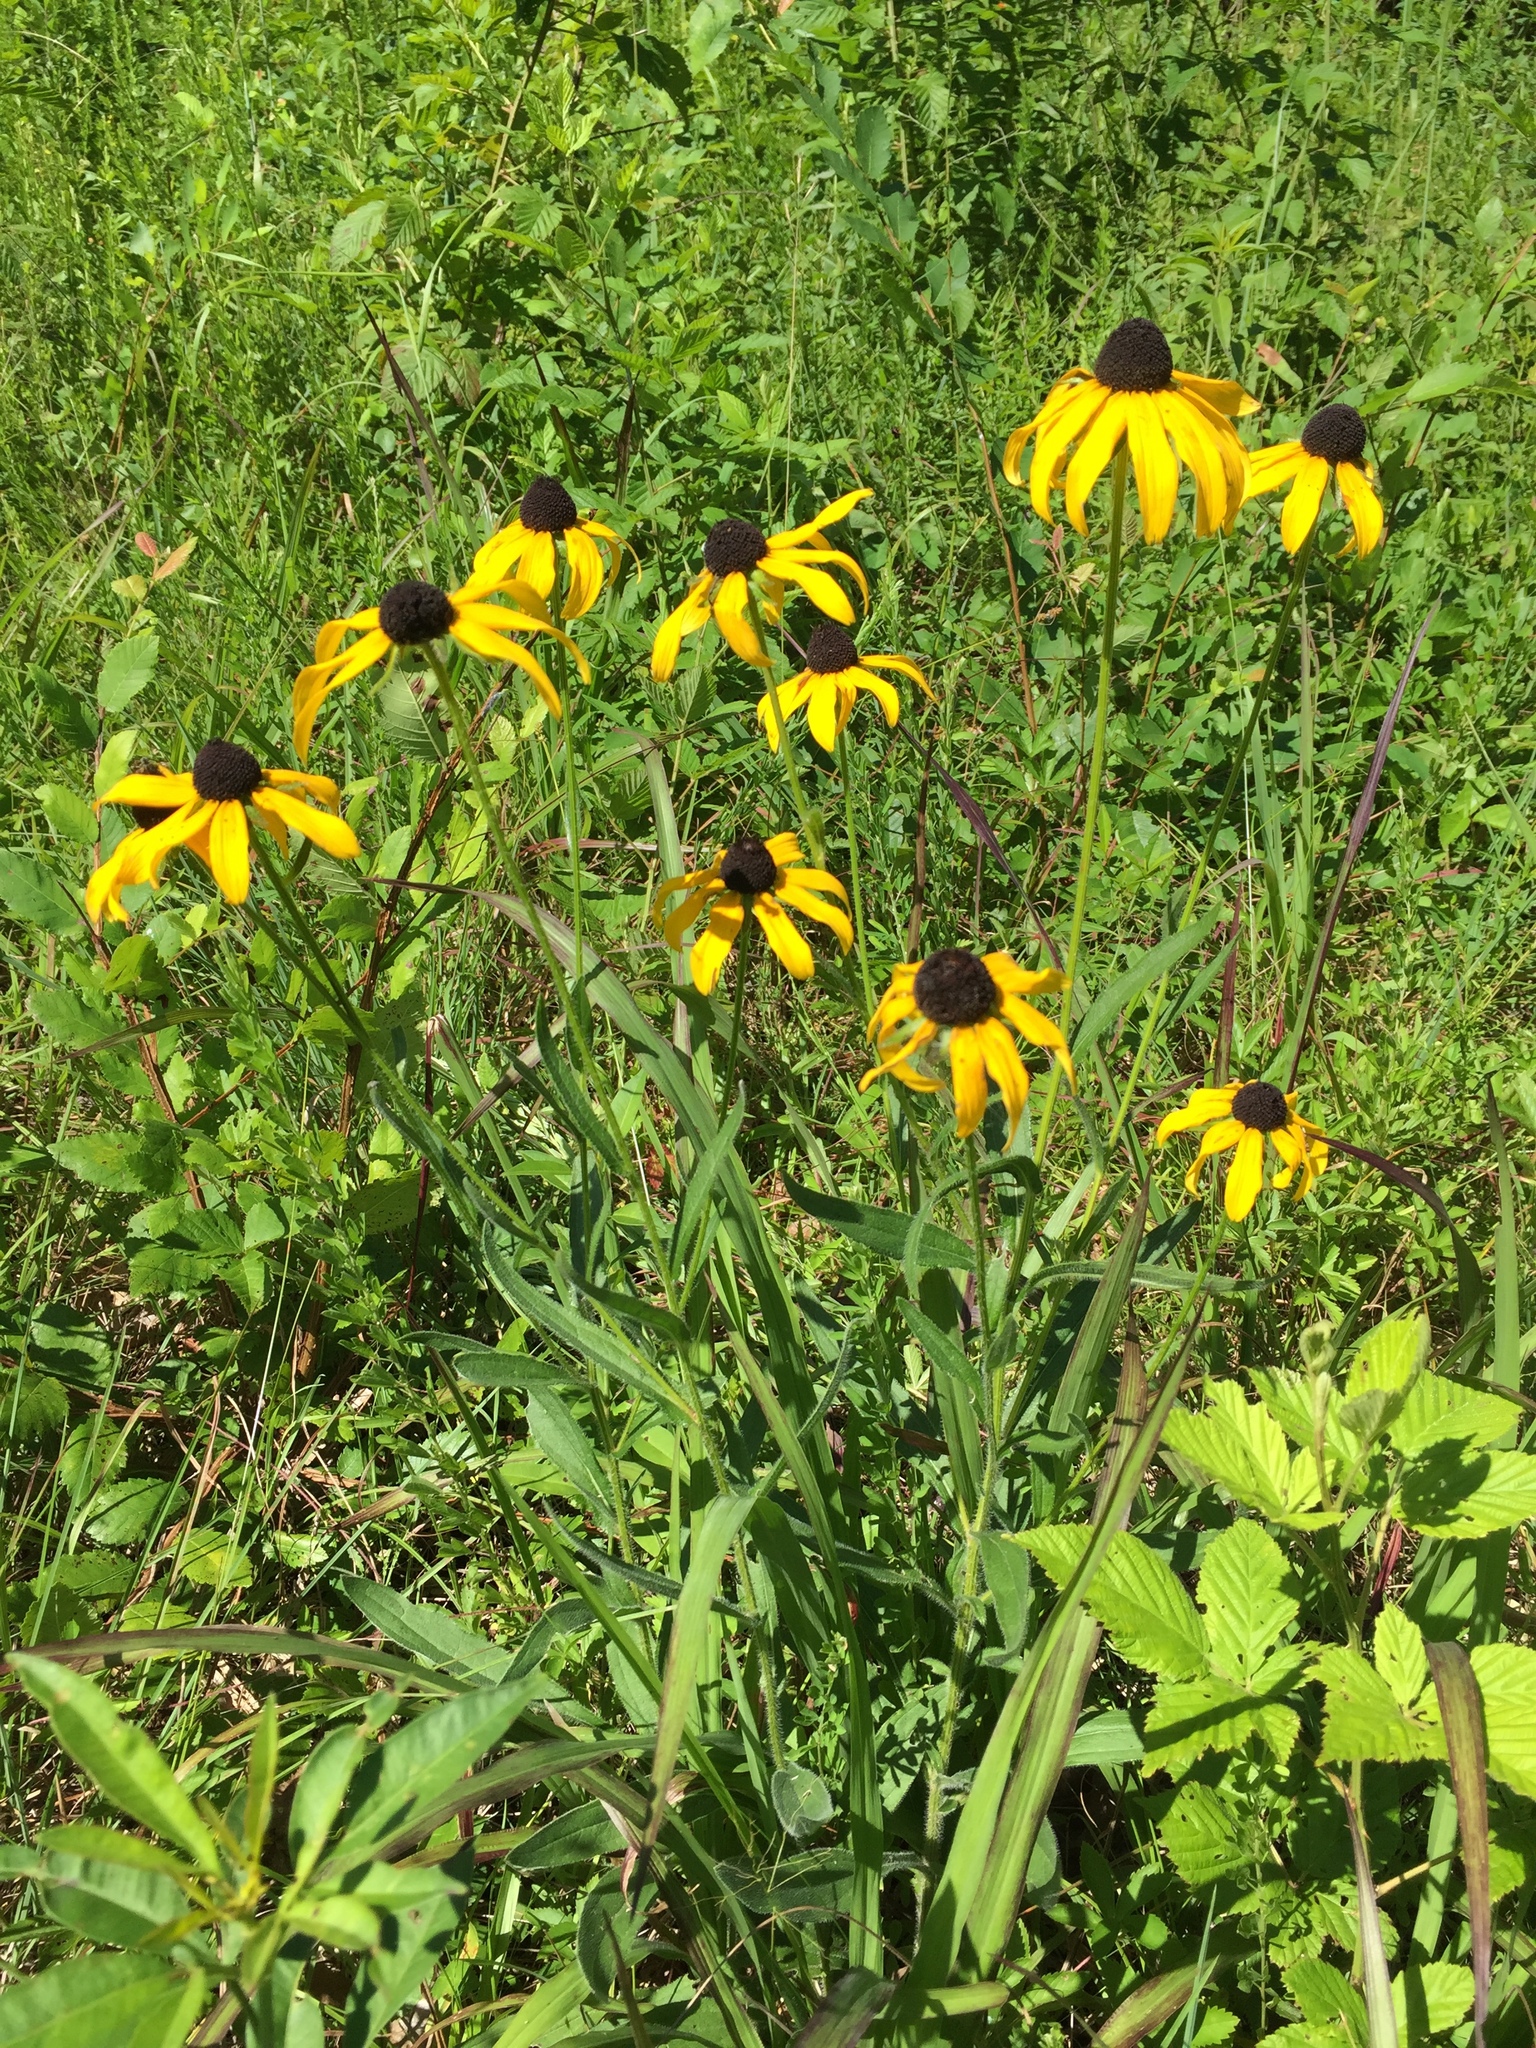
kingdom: Plantae
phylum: Tracheophyta
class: Magnoliopsida
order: Asterales
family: Asteraceae
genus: Rudbeckia
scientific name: Rudbeckia hirta
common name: Black-eyed-susan
